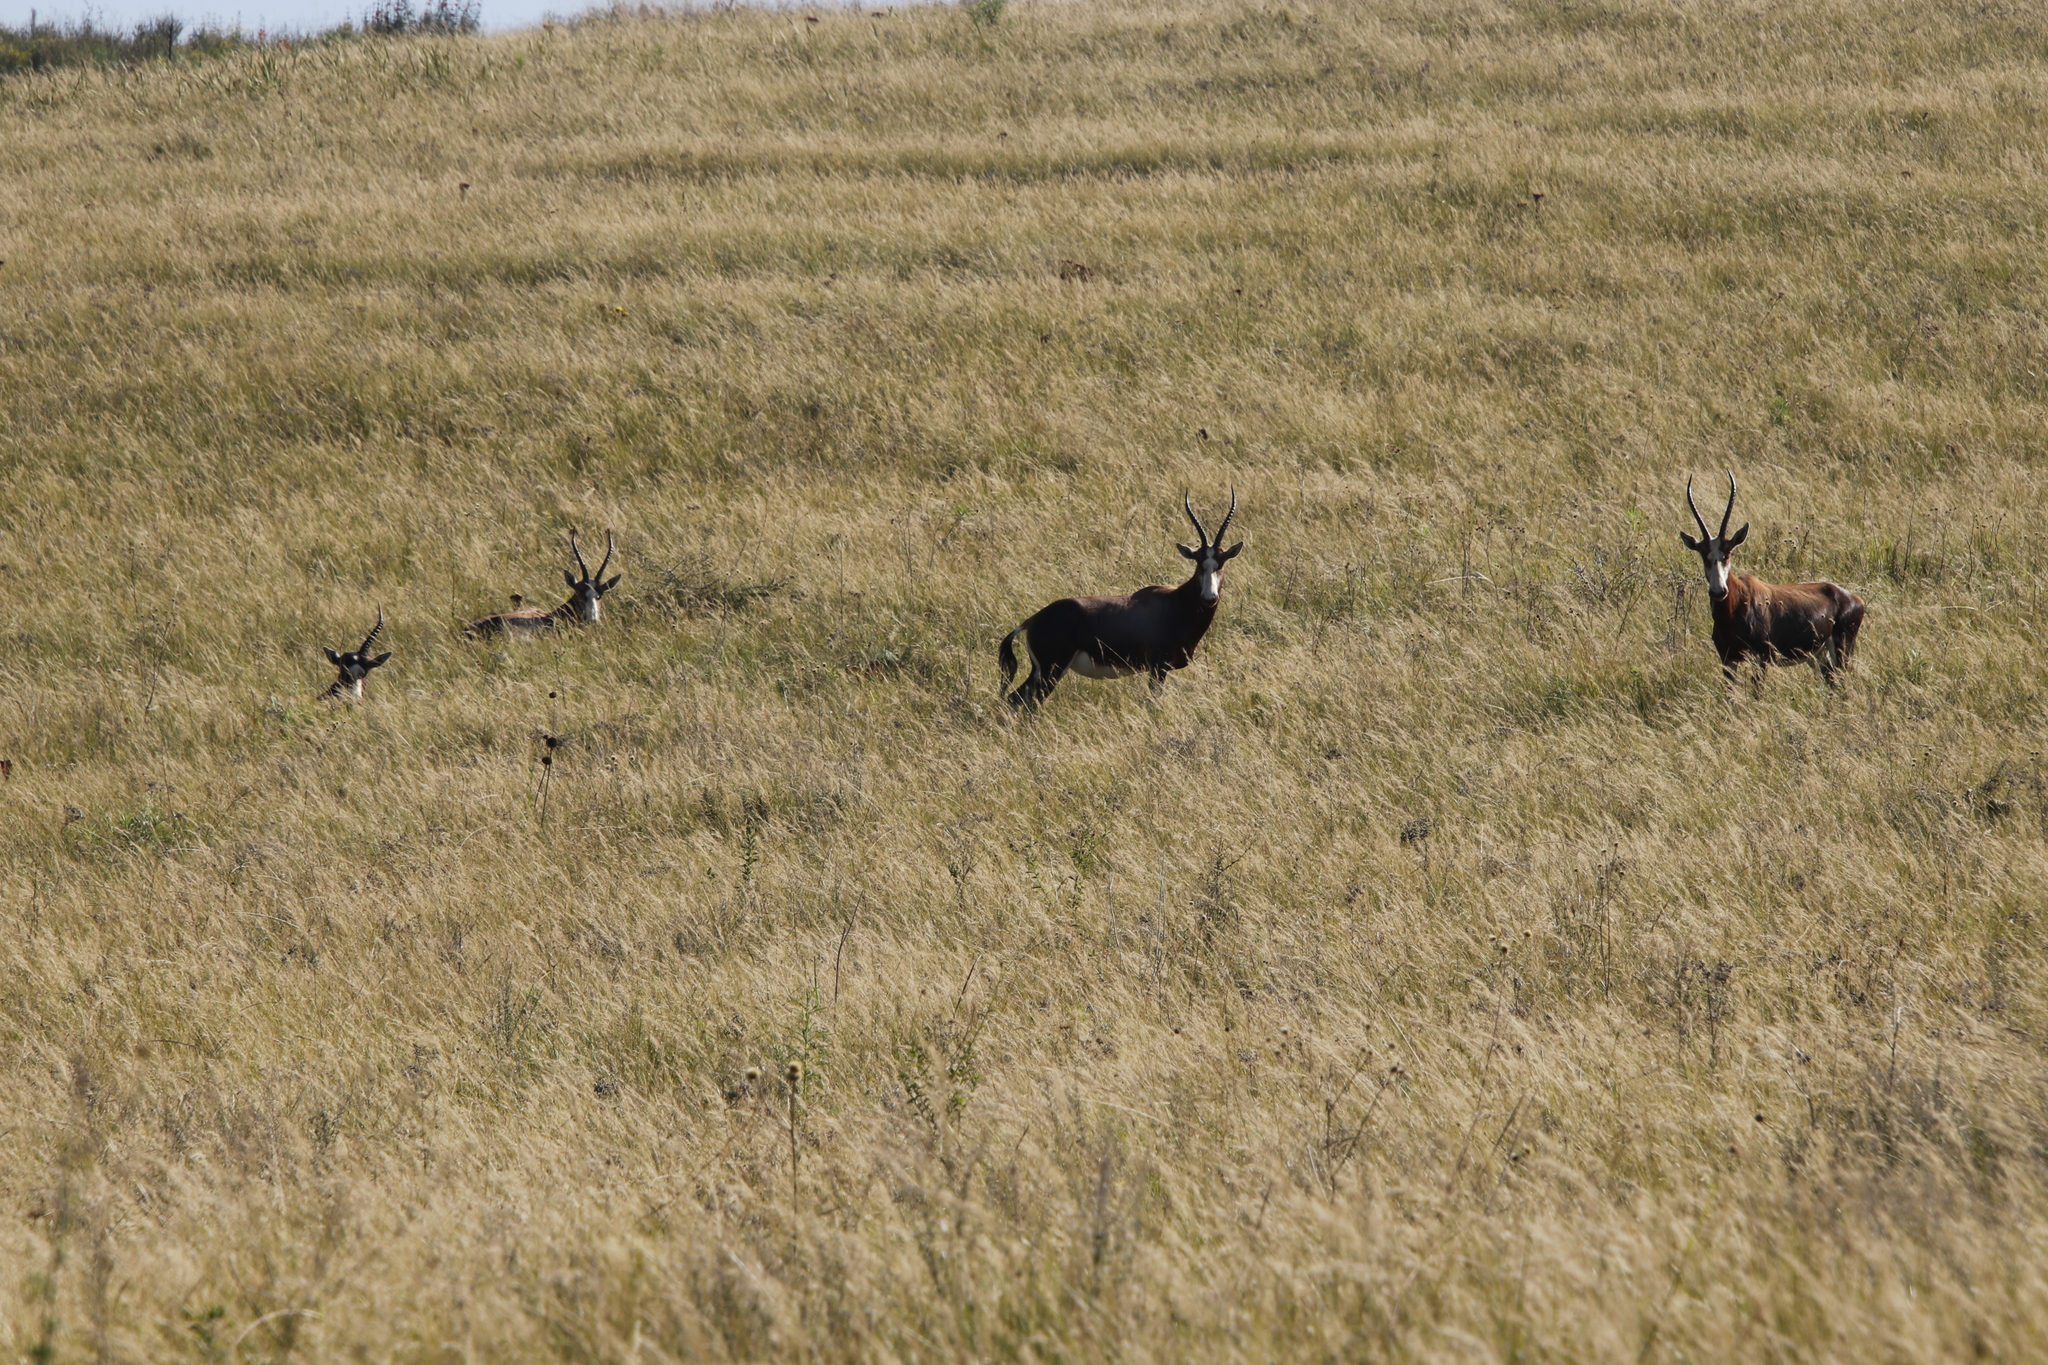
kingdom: Animalia
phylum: Chordata
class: Mammalia
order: Artiodactyla
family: Bovidae
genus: Damaliscus
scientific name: Damaliscus pygargus
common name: Bontebok
